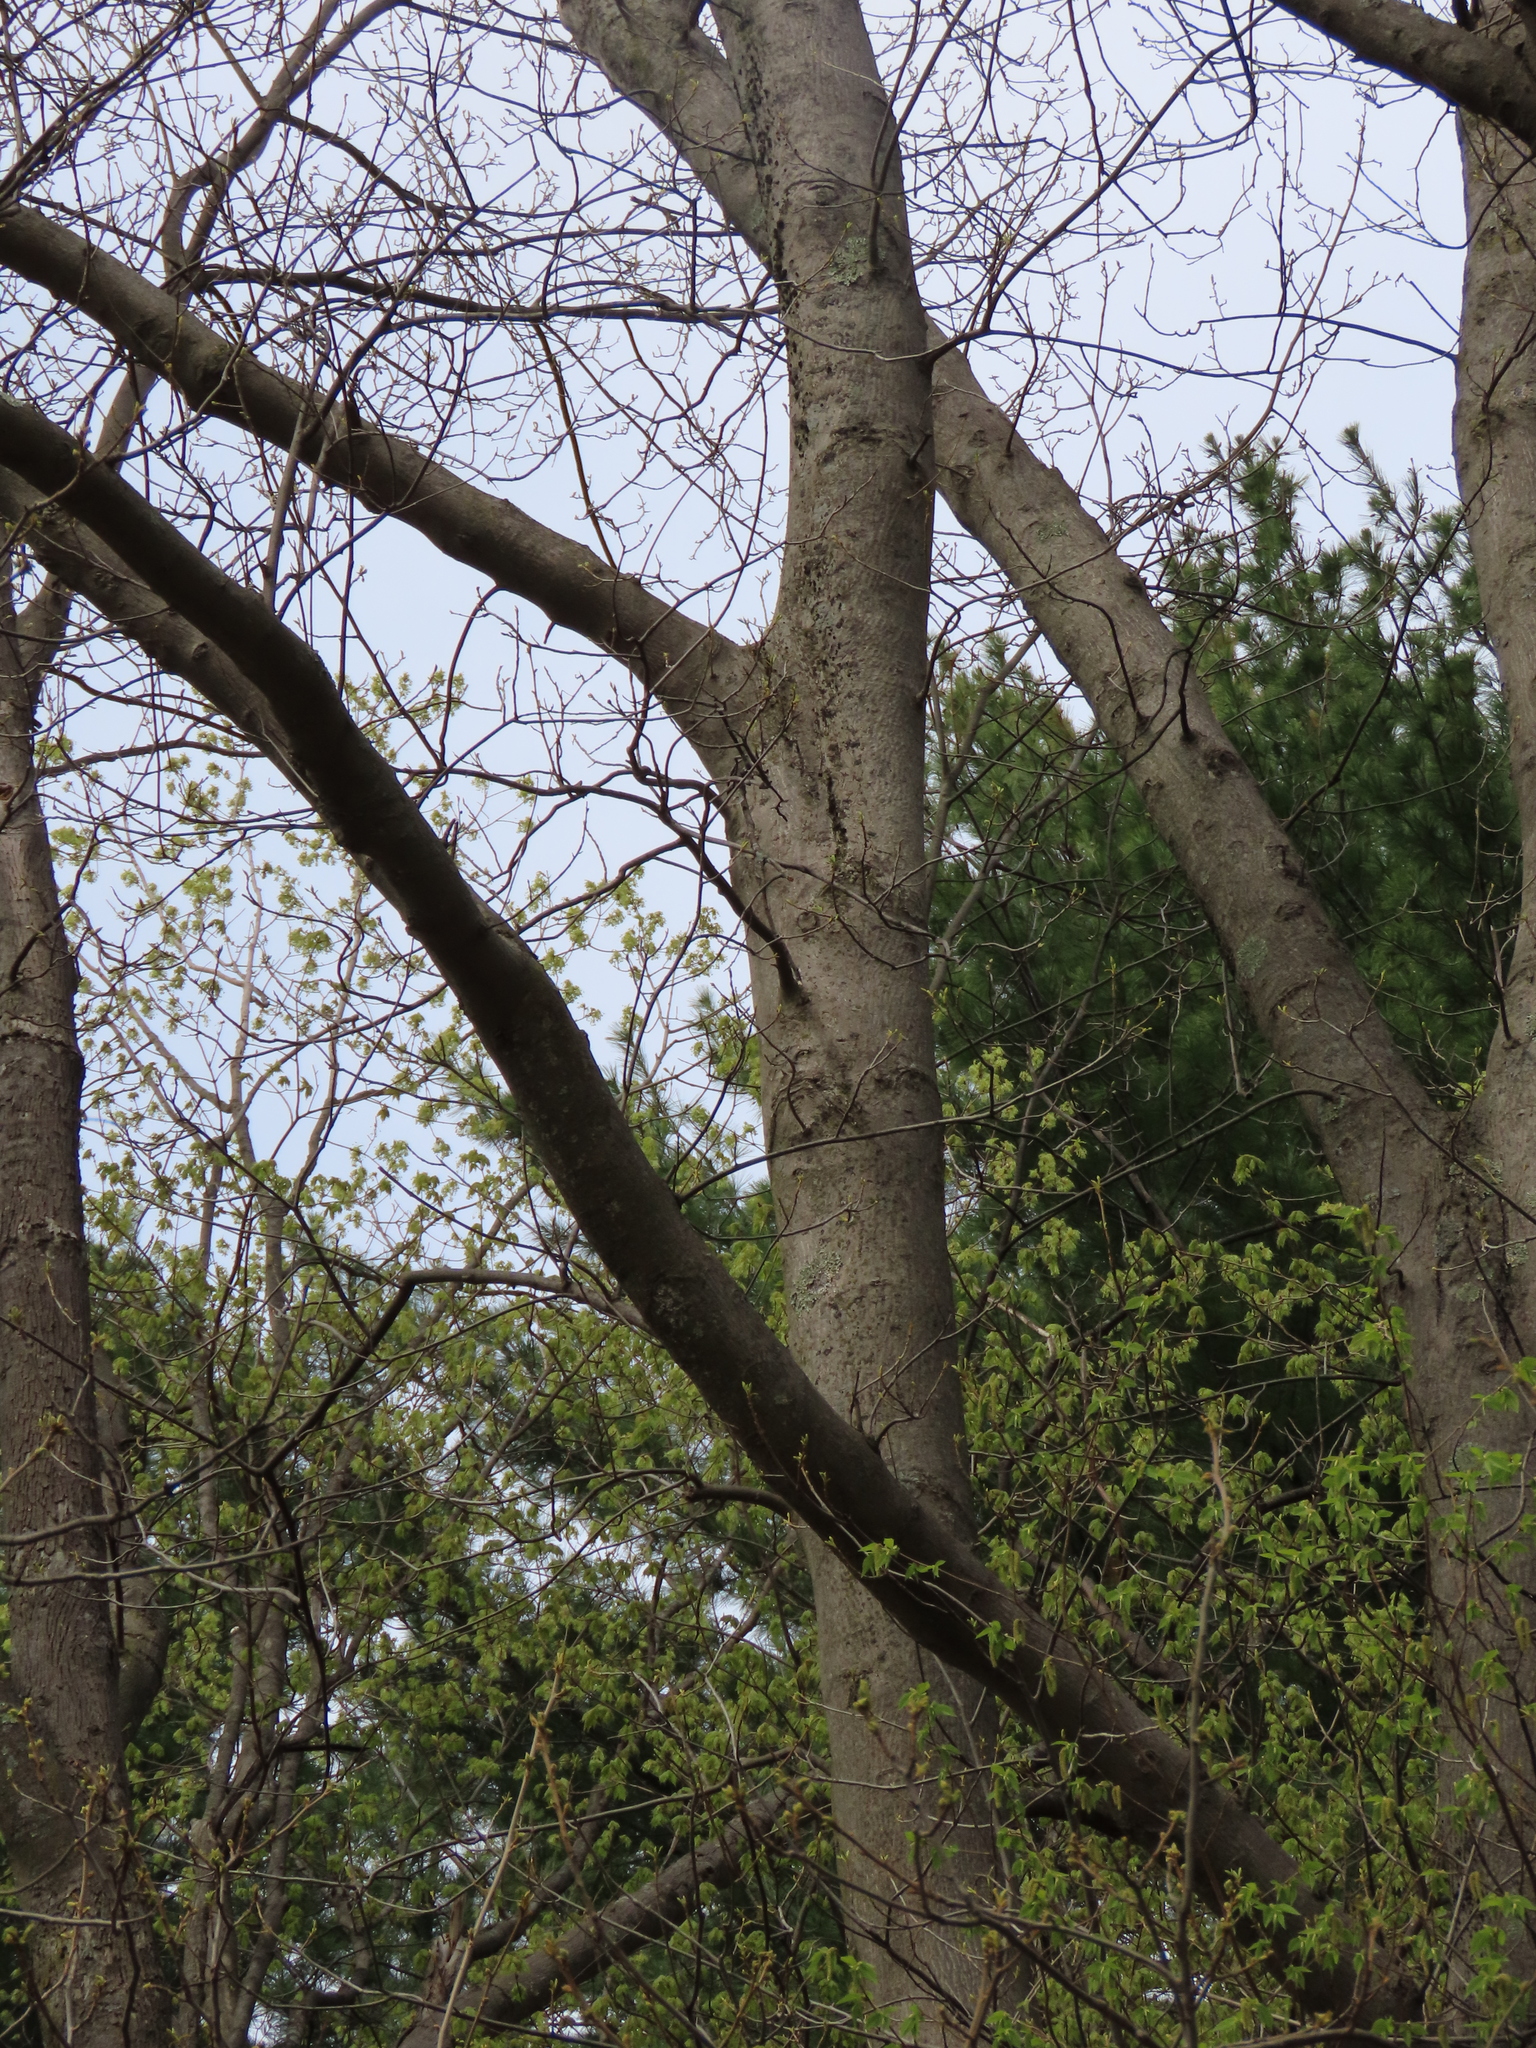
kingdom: Plantae
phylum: Tracheophyta
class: Magnoliopsida
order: Fagales
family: Fagaceae
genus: Fagus
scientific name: Fagus grandifolia
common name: American beech
